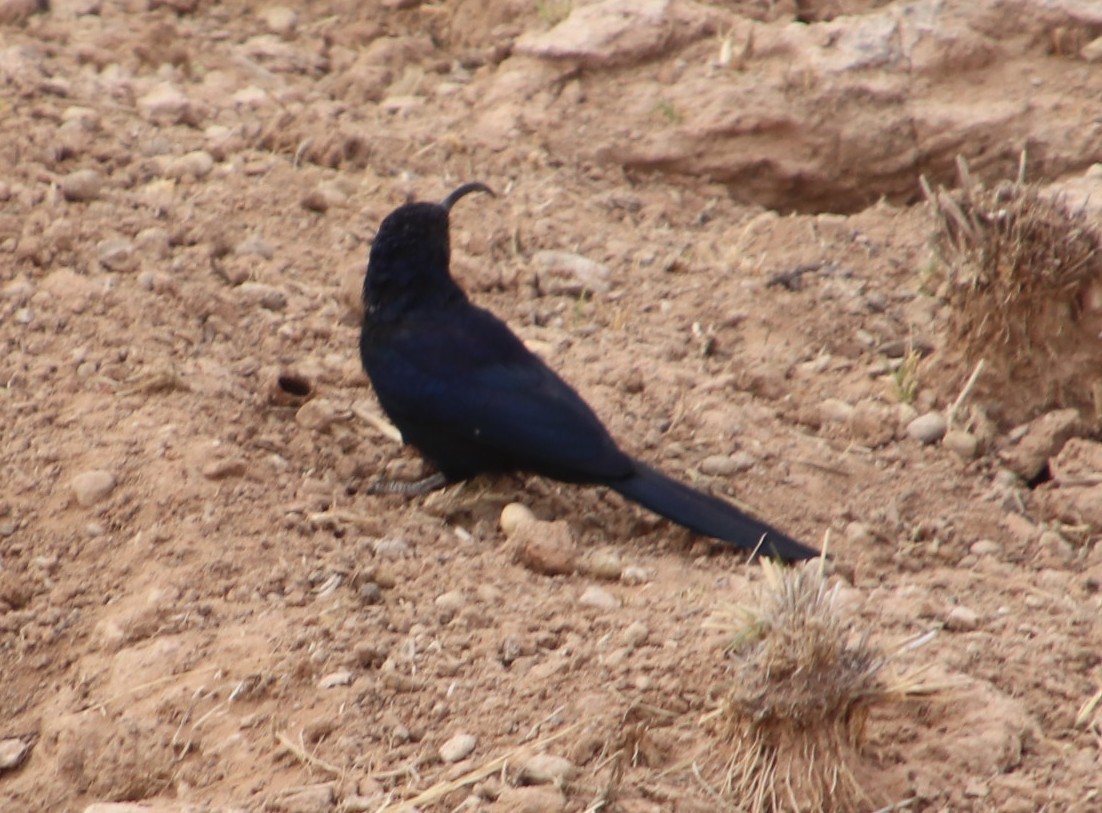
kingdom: Animalia
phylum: Chordata
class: Aves
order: Bucerotiformes
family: Phoeniculidae
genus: Rhinopomastus
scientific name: Rhinopomastus cyanomelas
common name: Common scimitarbill
